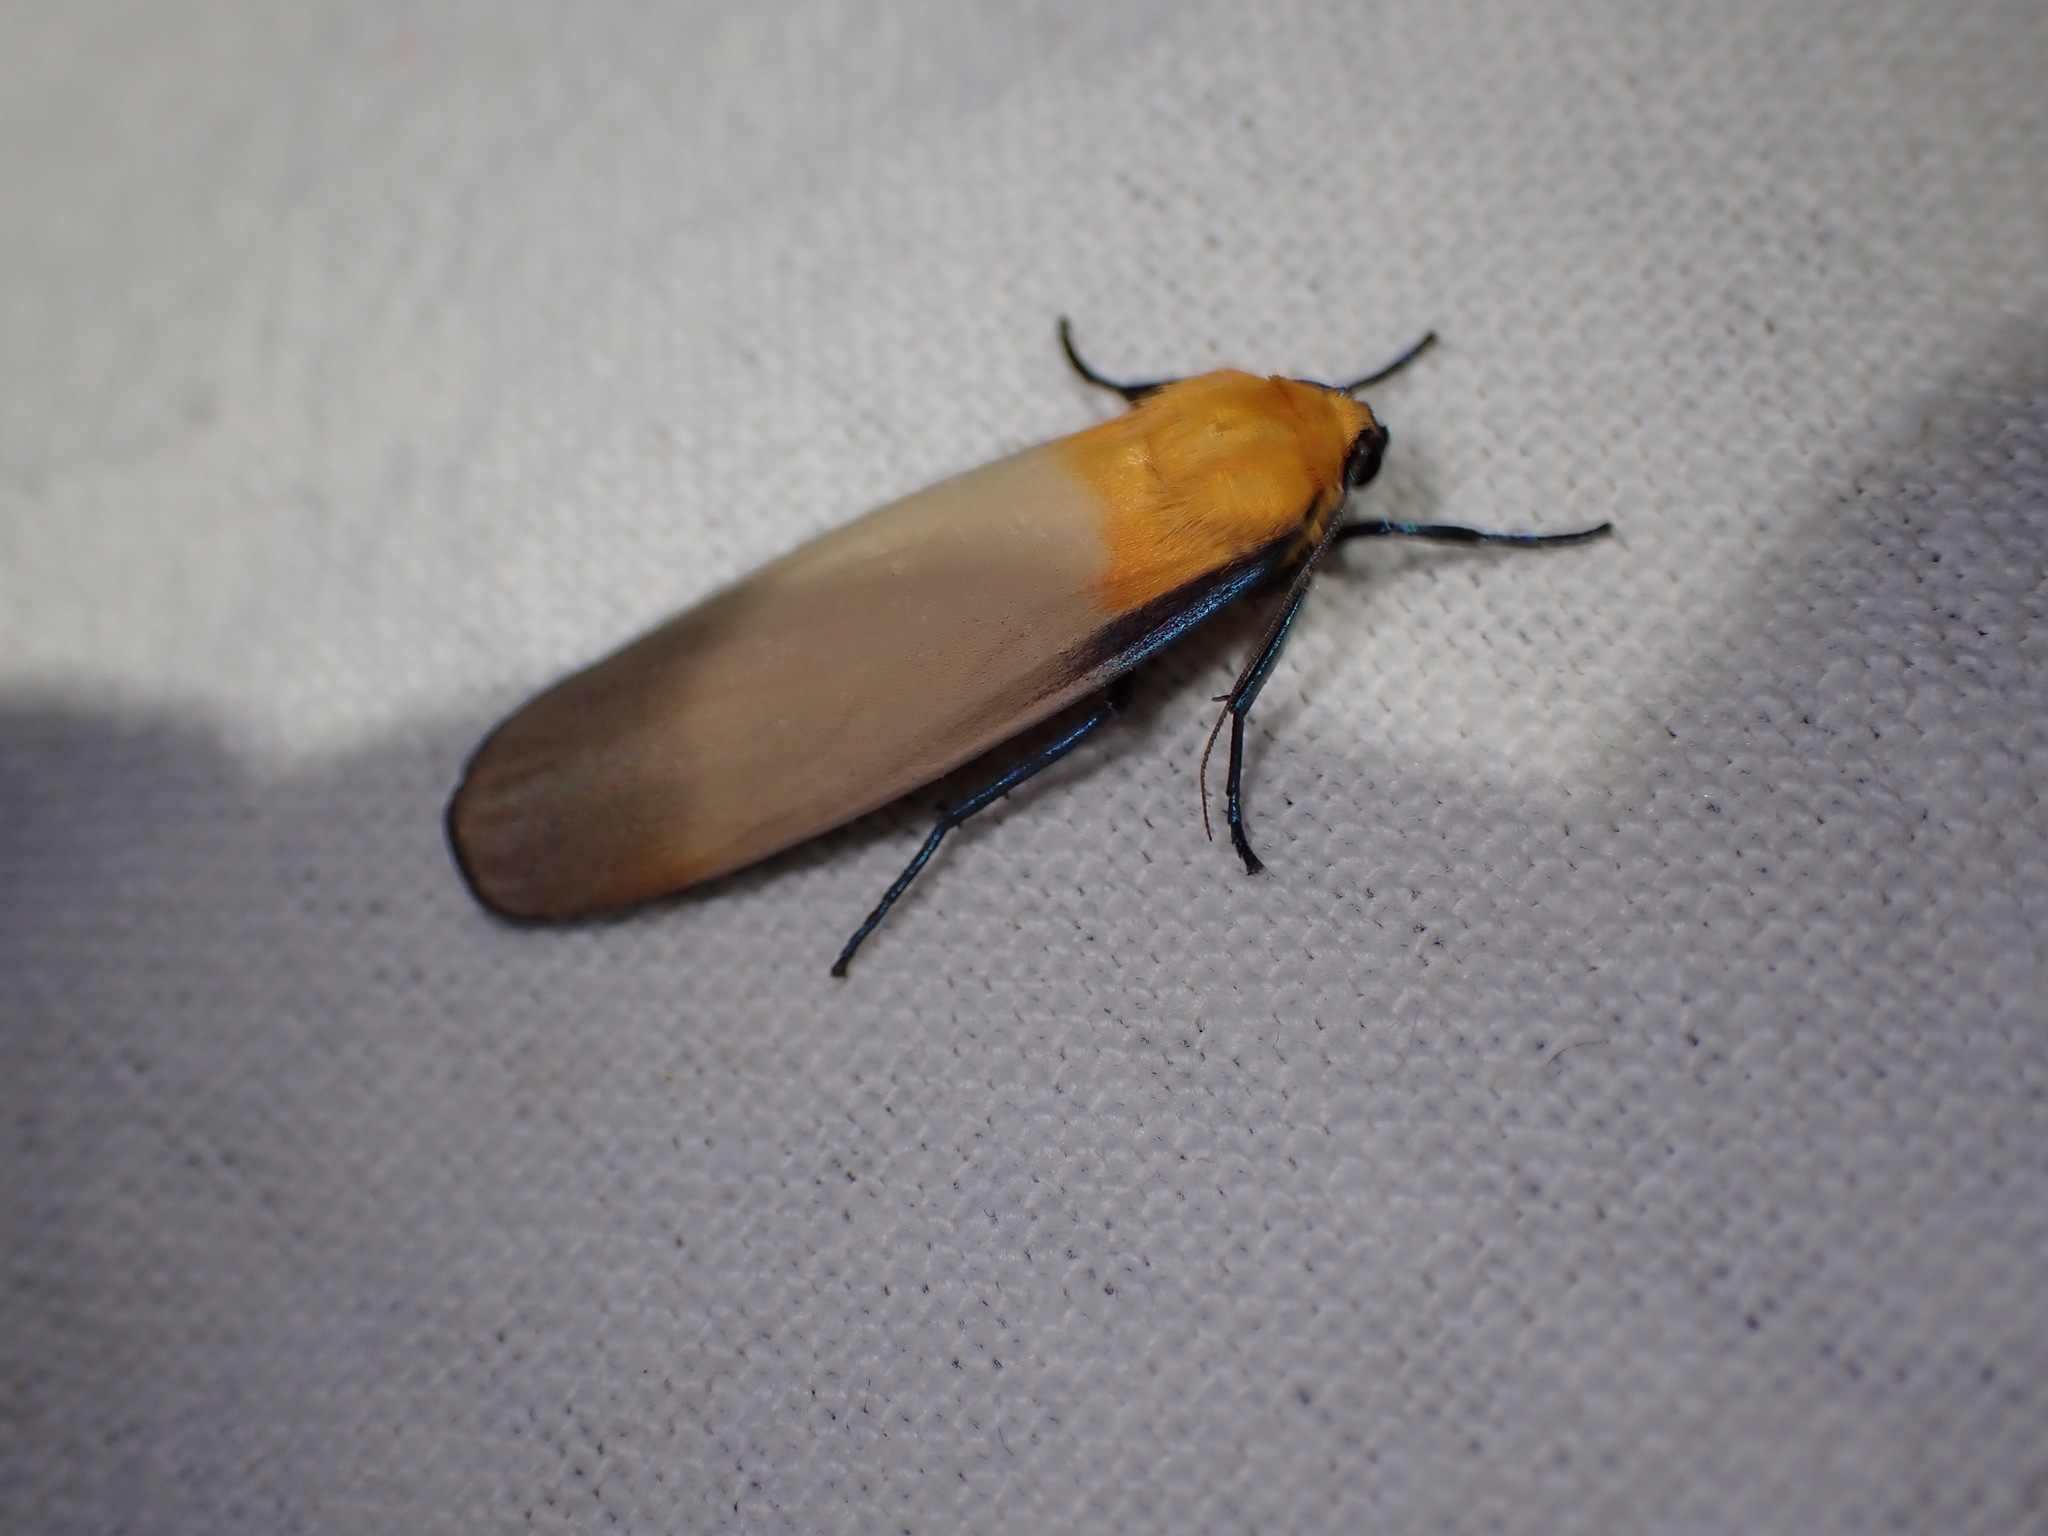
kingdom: Animalia
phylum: Arthropoda
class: Insecta
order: Lepidoptera
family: Erebidae
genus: Lithosia
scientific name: Lithosia quadra
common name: Four-spotted footman
